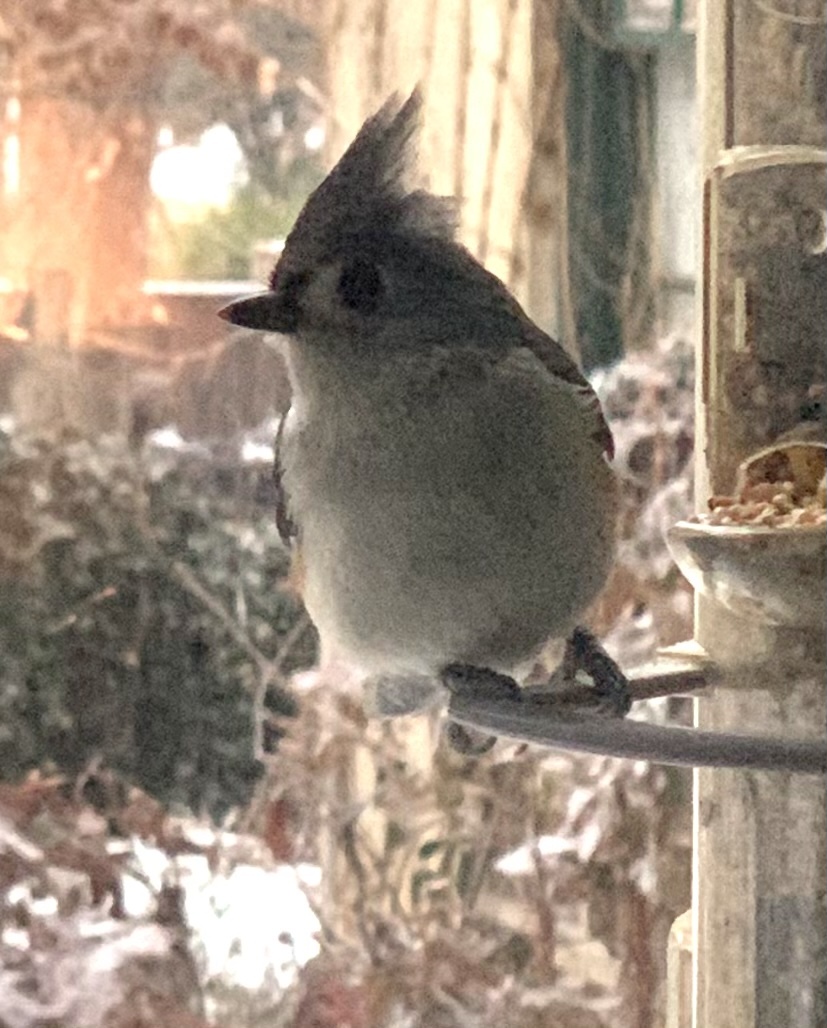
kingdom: Animalia
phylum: Chordata
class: Aves
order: Passeriformes
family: Paridae
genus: Baeolophus
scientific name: Baeolophus bicolor
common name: Tufted titmouse
